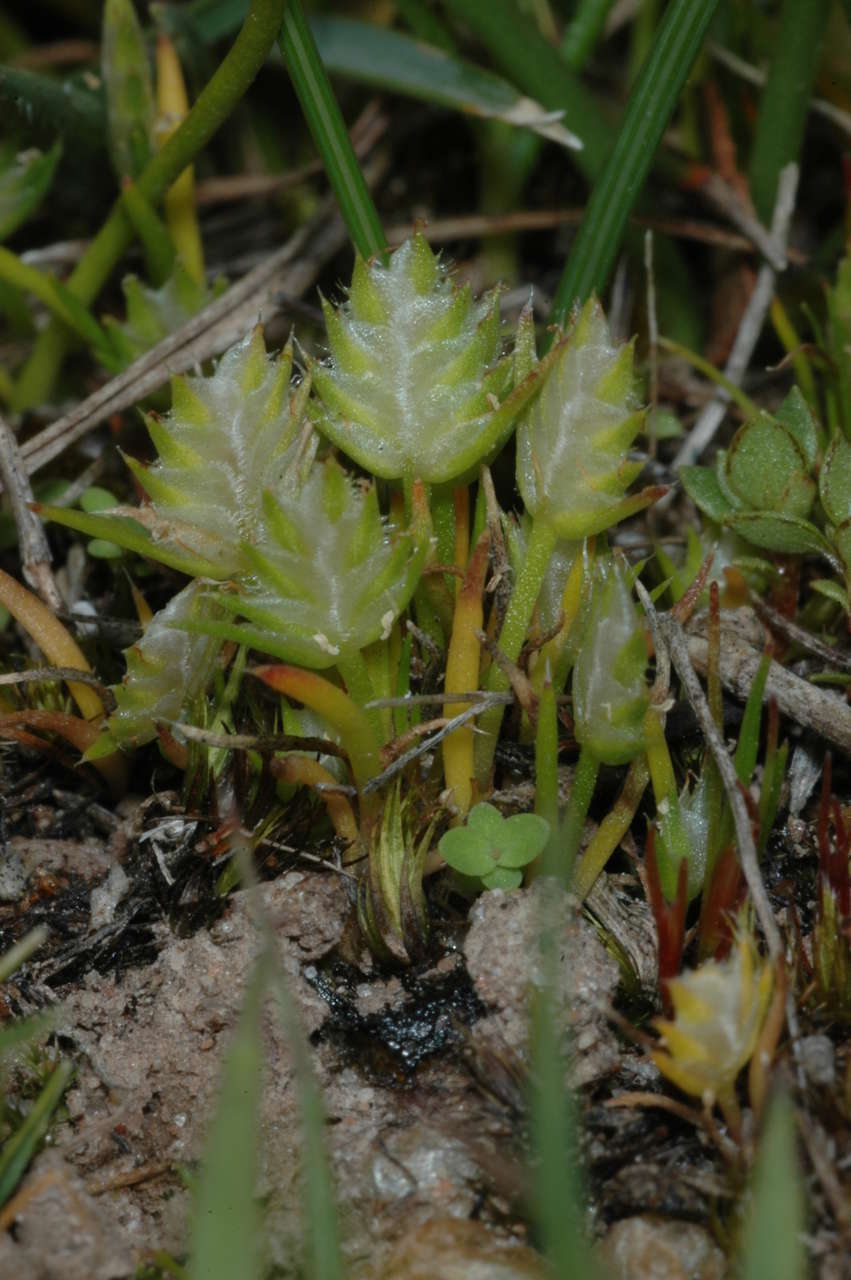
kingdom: Plantae
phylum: Tracheophyta
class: Liliopsida
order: Poales
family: Restionaceae
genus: Aphelia
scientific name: Aphelia pumilio
